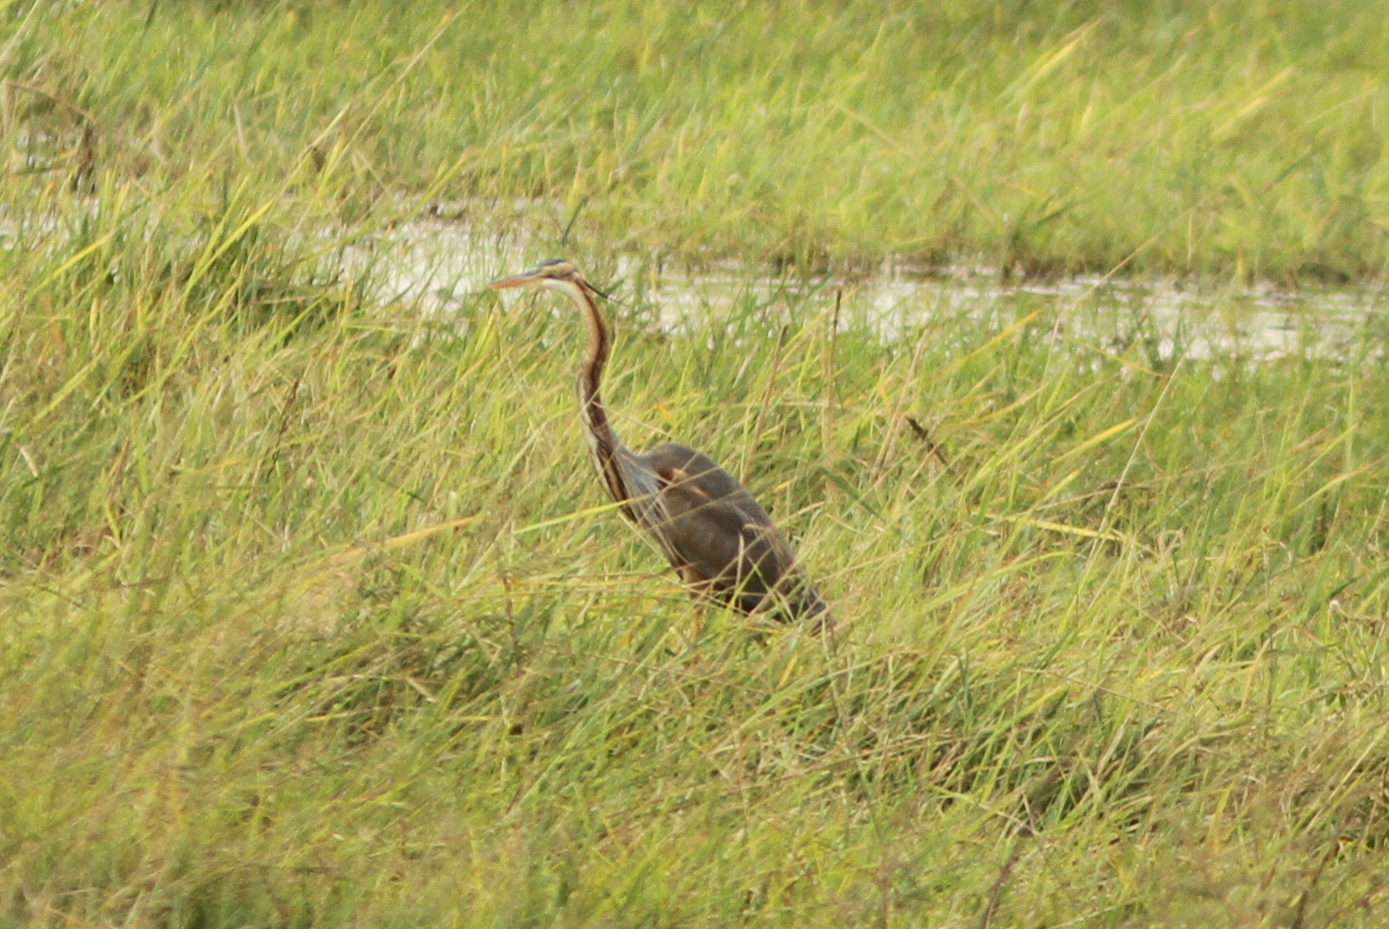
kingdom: Animalia
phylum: Chordata
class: Aves
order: Pelecaniformes
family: Ardeidae
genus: Ardea
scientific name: Ardea purpurea
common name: Purple heron
